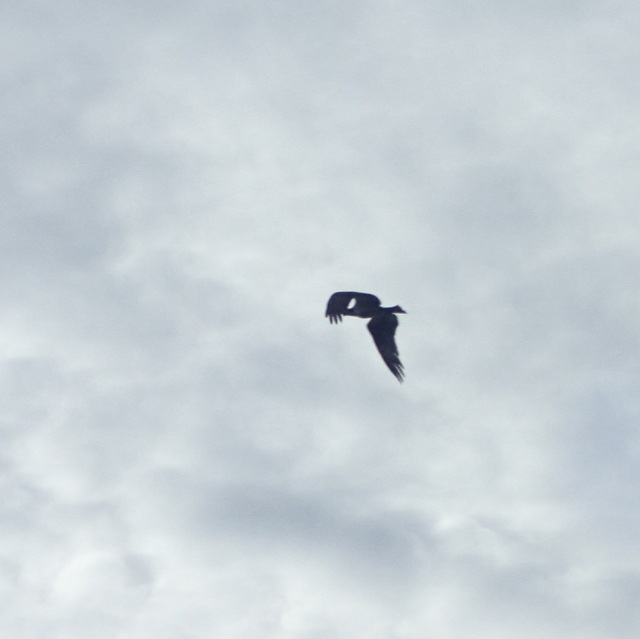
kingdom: Animalia
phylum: Chordata
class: Aves
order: Accipitriformes
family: Pandionidae
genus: Pandion
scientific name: Pandion haliaetus
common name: Osprey
